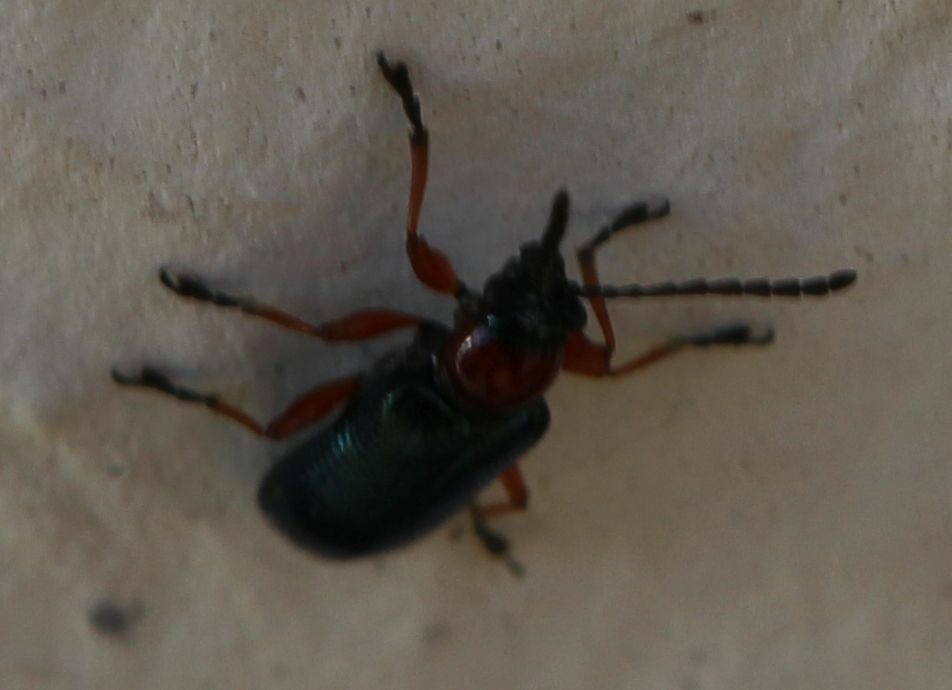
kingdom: Animalia
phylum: Arthropoda
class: Insecta
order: Coleoptera
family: Chrysomelidae
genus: Oulema
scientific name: Oulema
